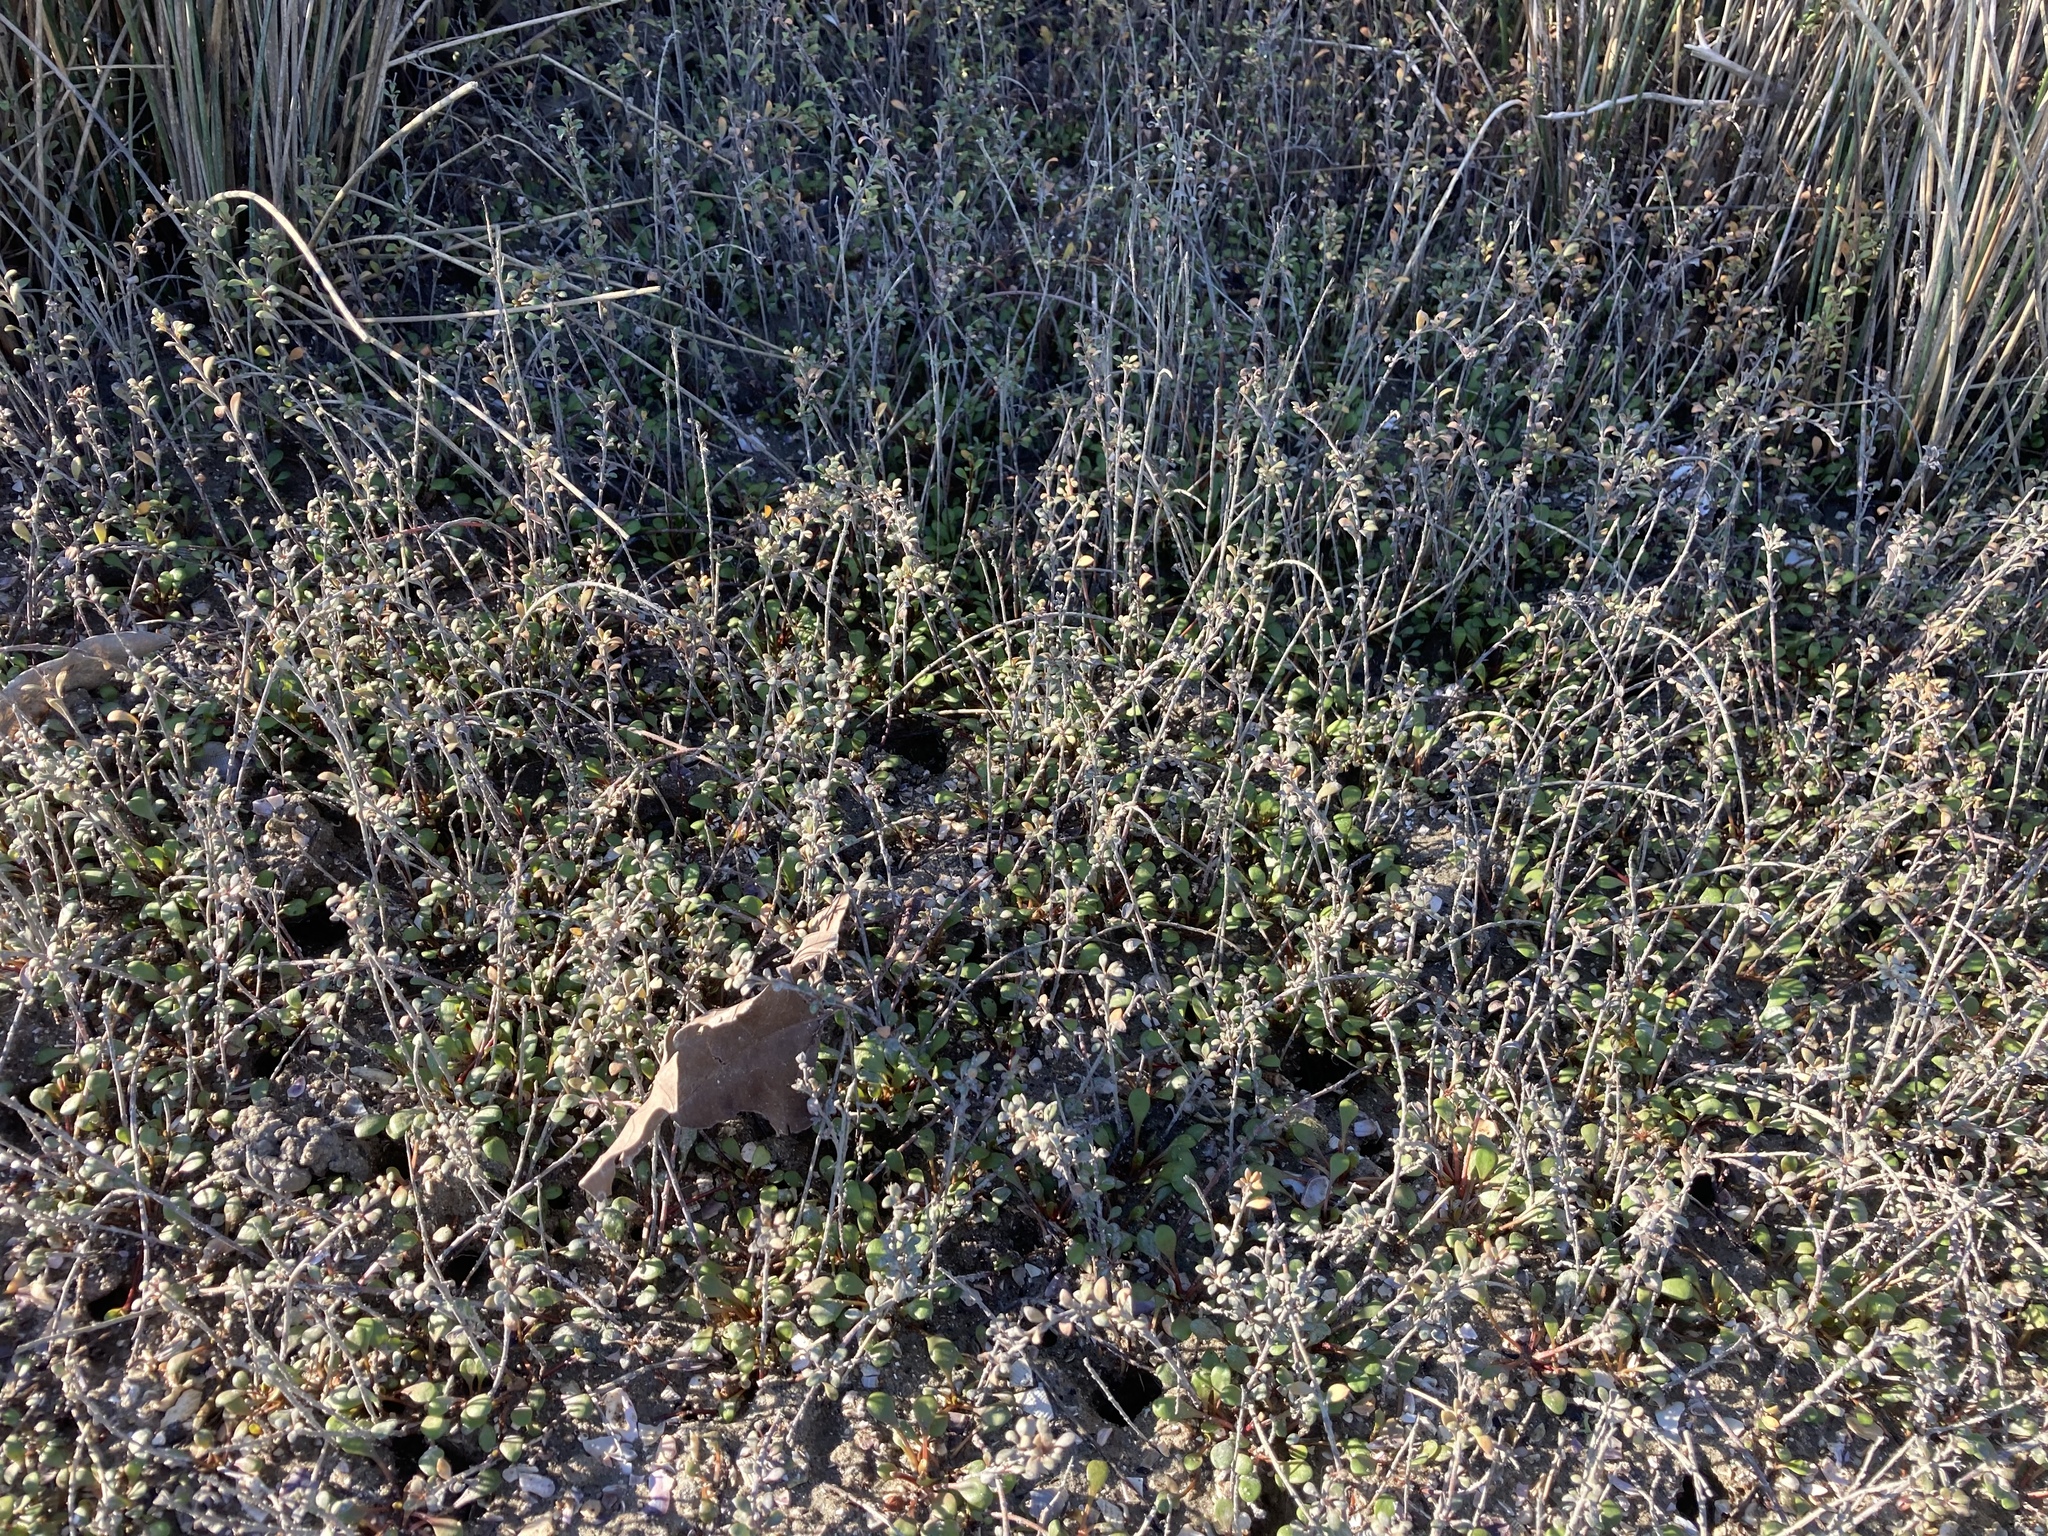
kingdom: Plantae
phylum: Tracheophyta
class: Magnoliopsida
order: Ericales
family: Primulaceae
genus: Samolus
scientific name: Samolus repens
